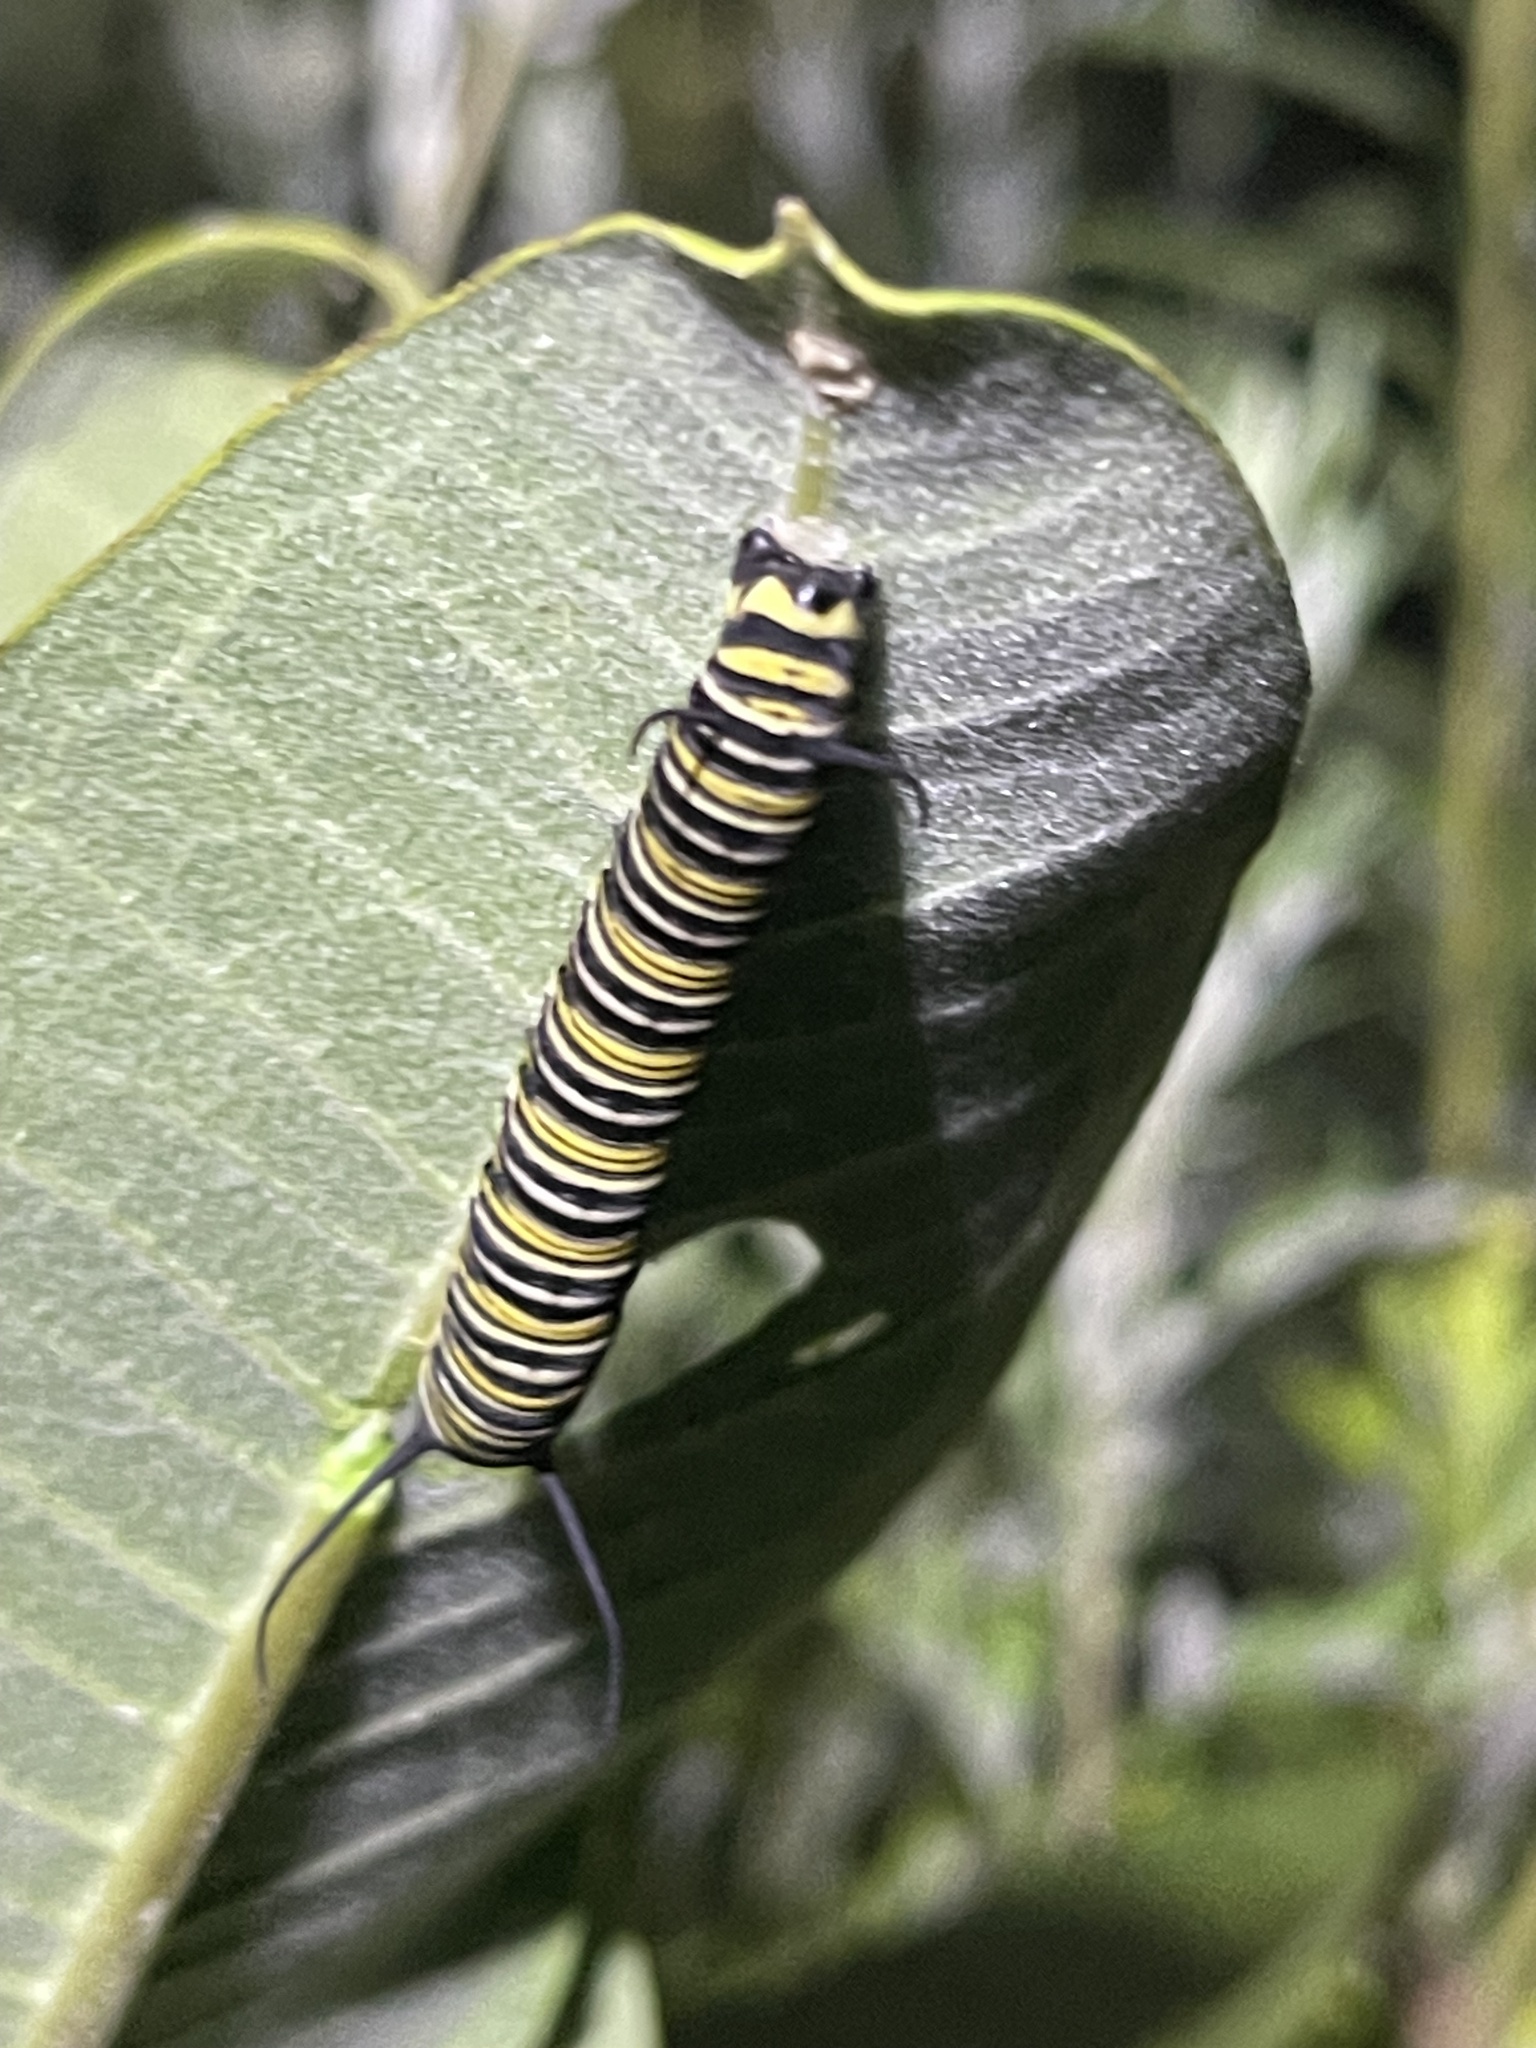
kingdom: Animalia
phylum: Arthropoda
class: Insecta
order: Lepidoptera
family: Nymphalidae
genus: Danaus
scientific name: Danaus plexippus
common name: Monarch
